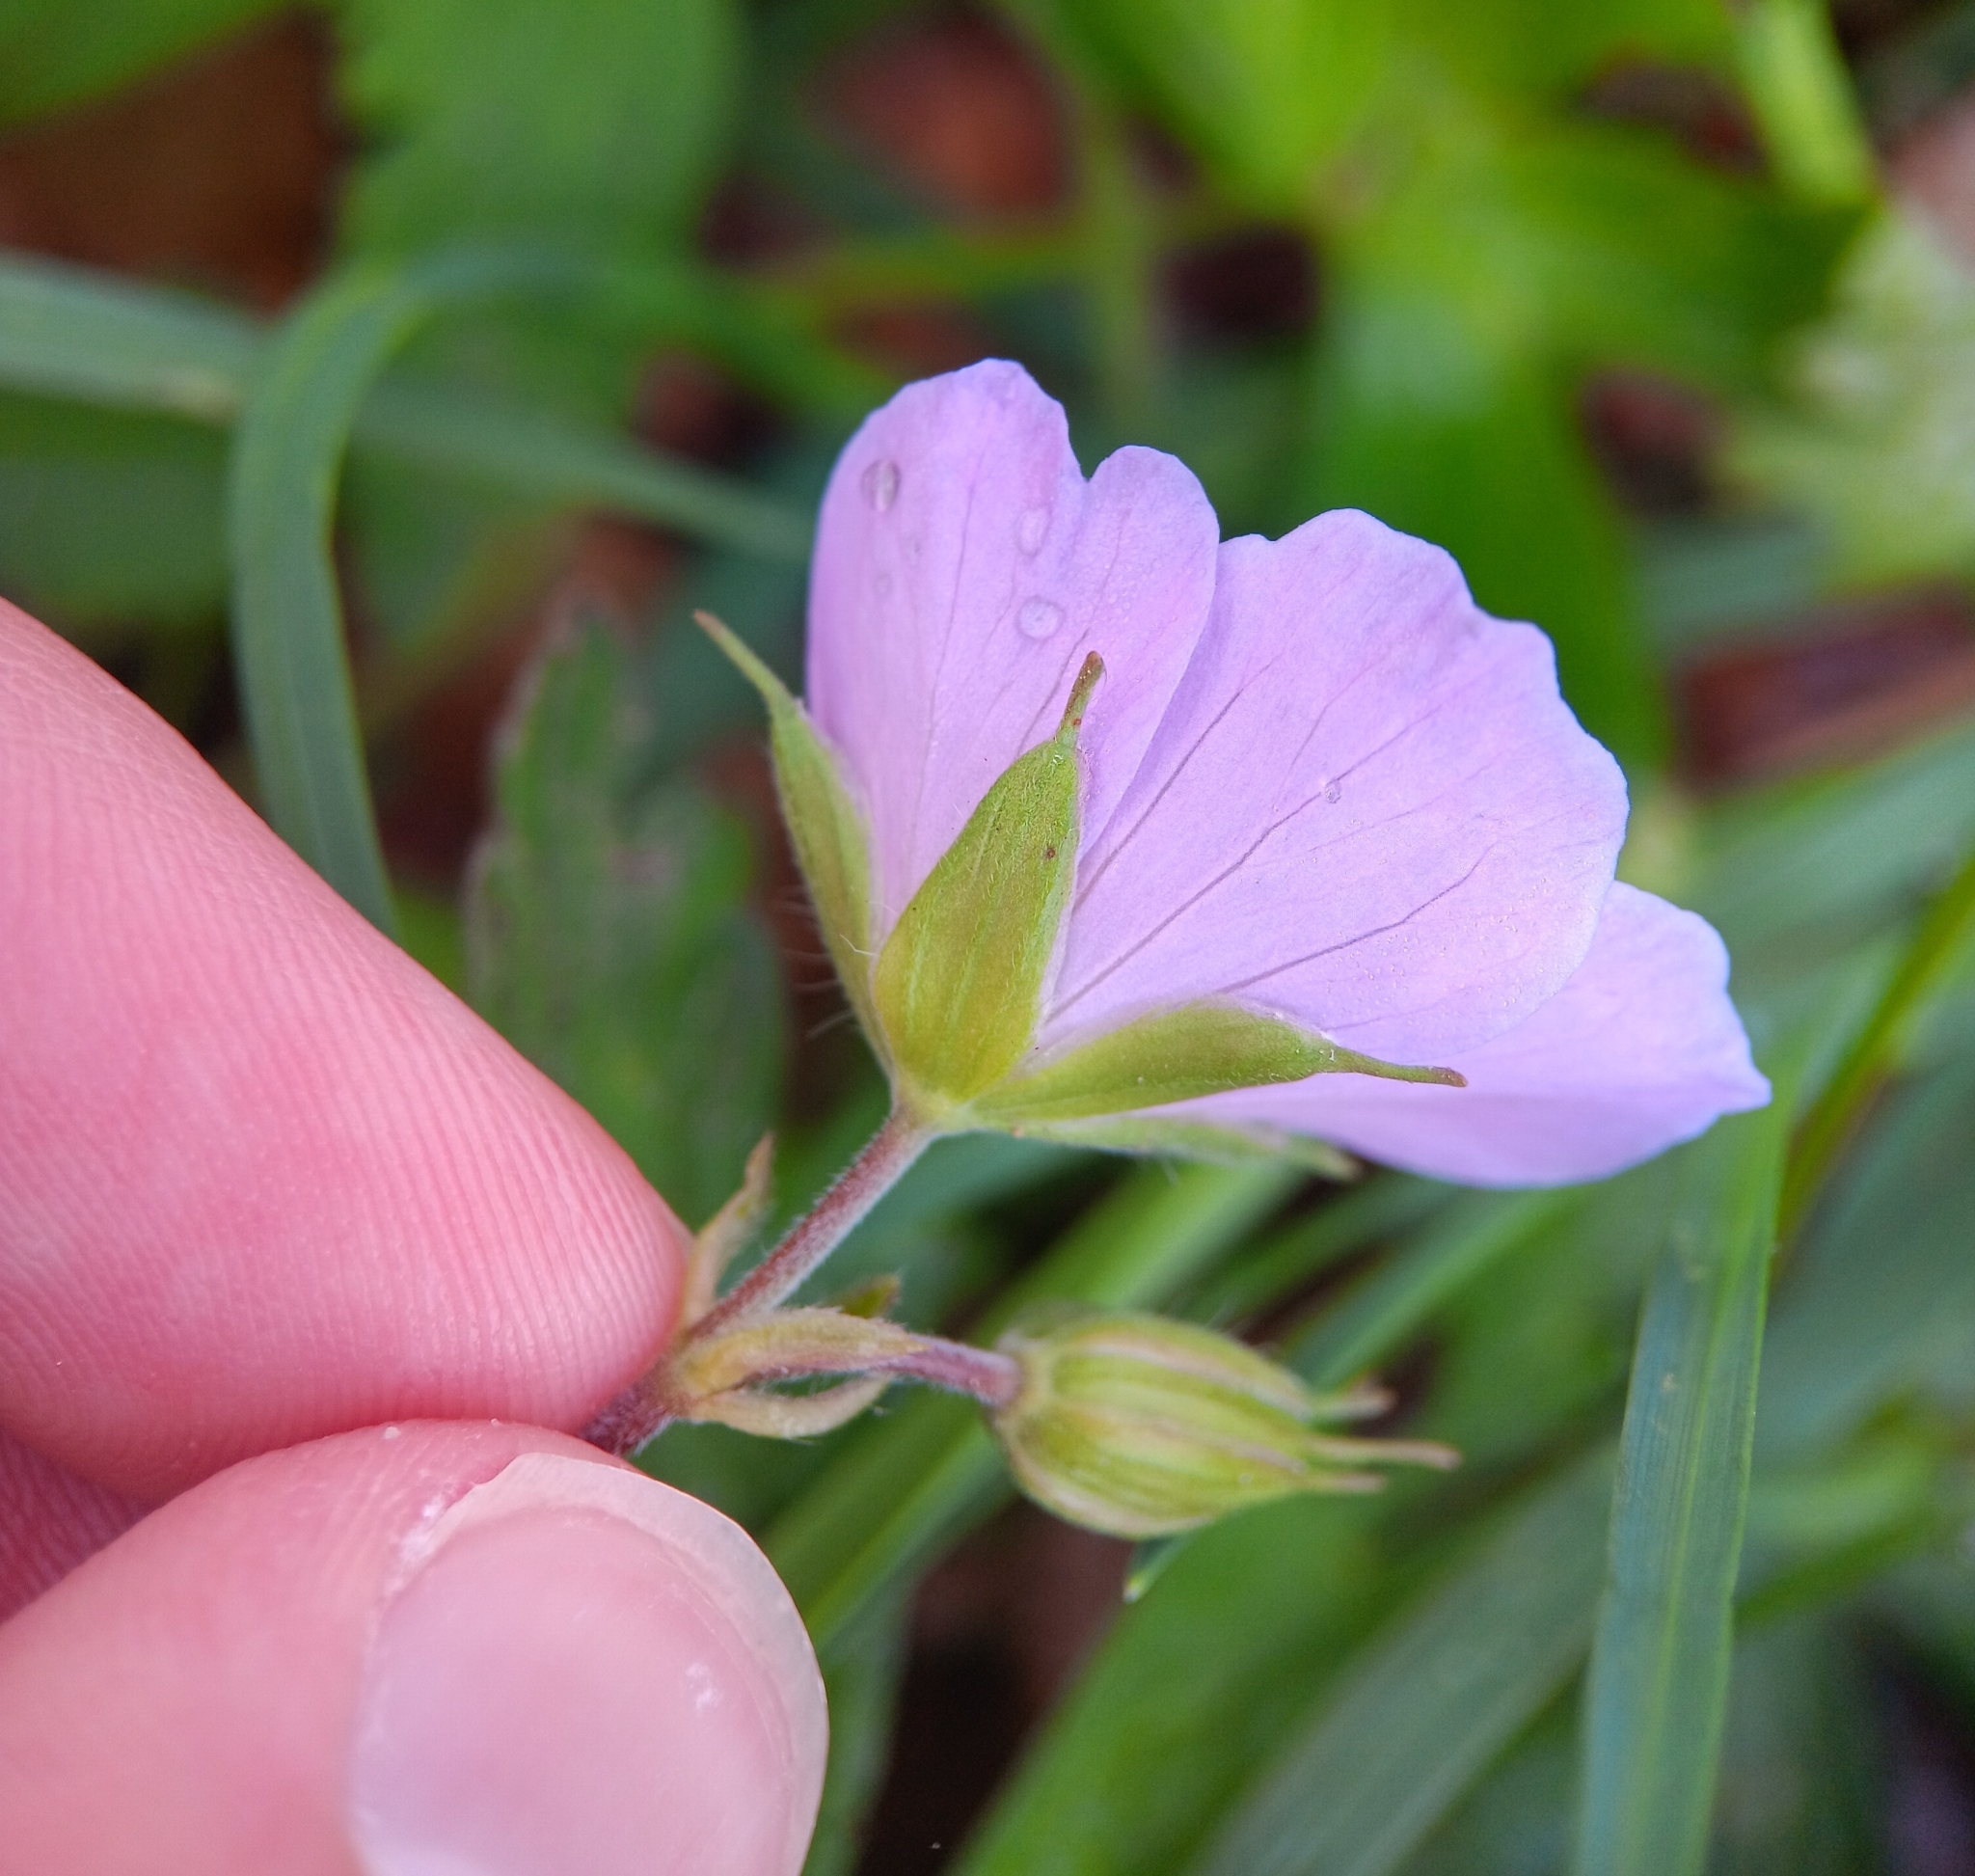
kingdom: Plantae
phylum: Tracheophyta
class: Magnoliopsida
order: Geraniales
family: Geraniaceae
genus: Geranium
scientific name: Geranium maculatum
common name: Spotted geranium
